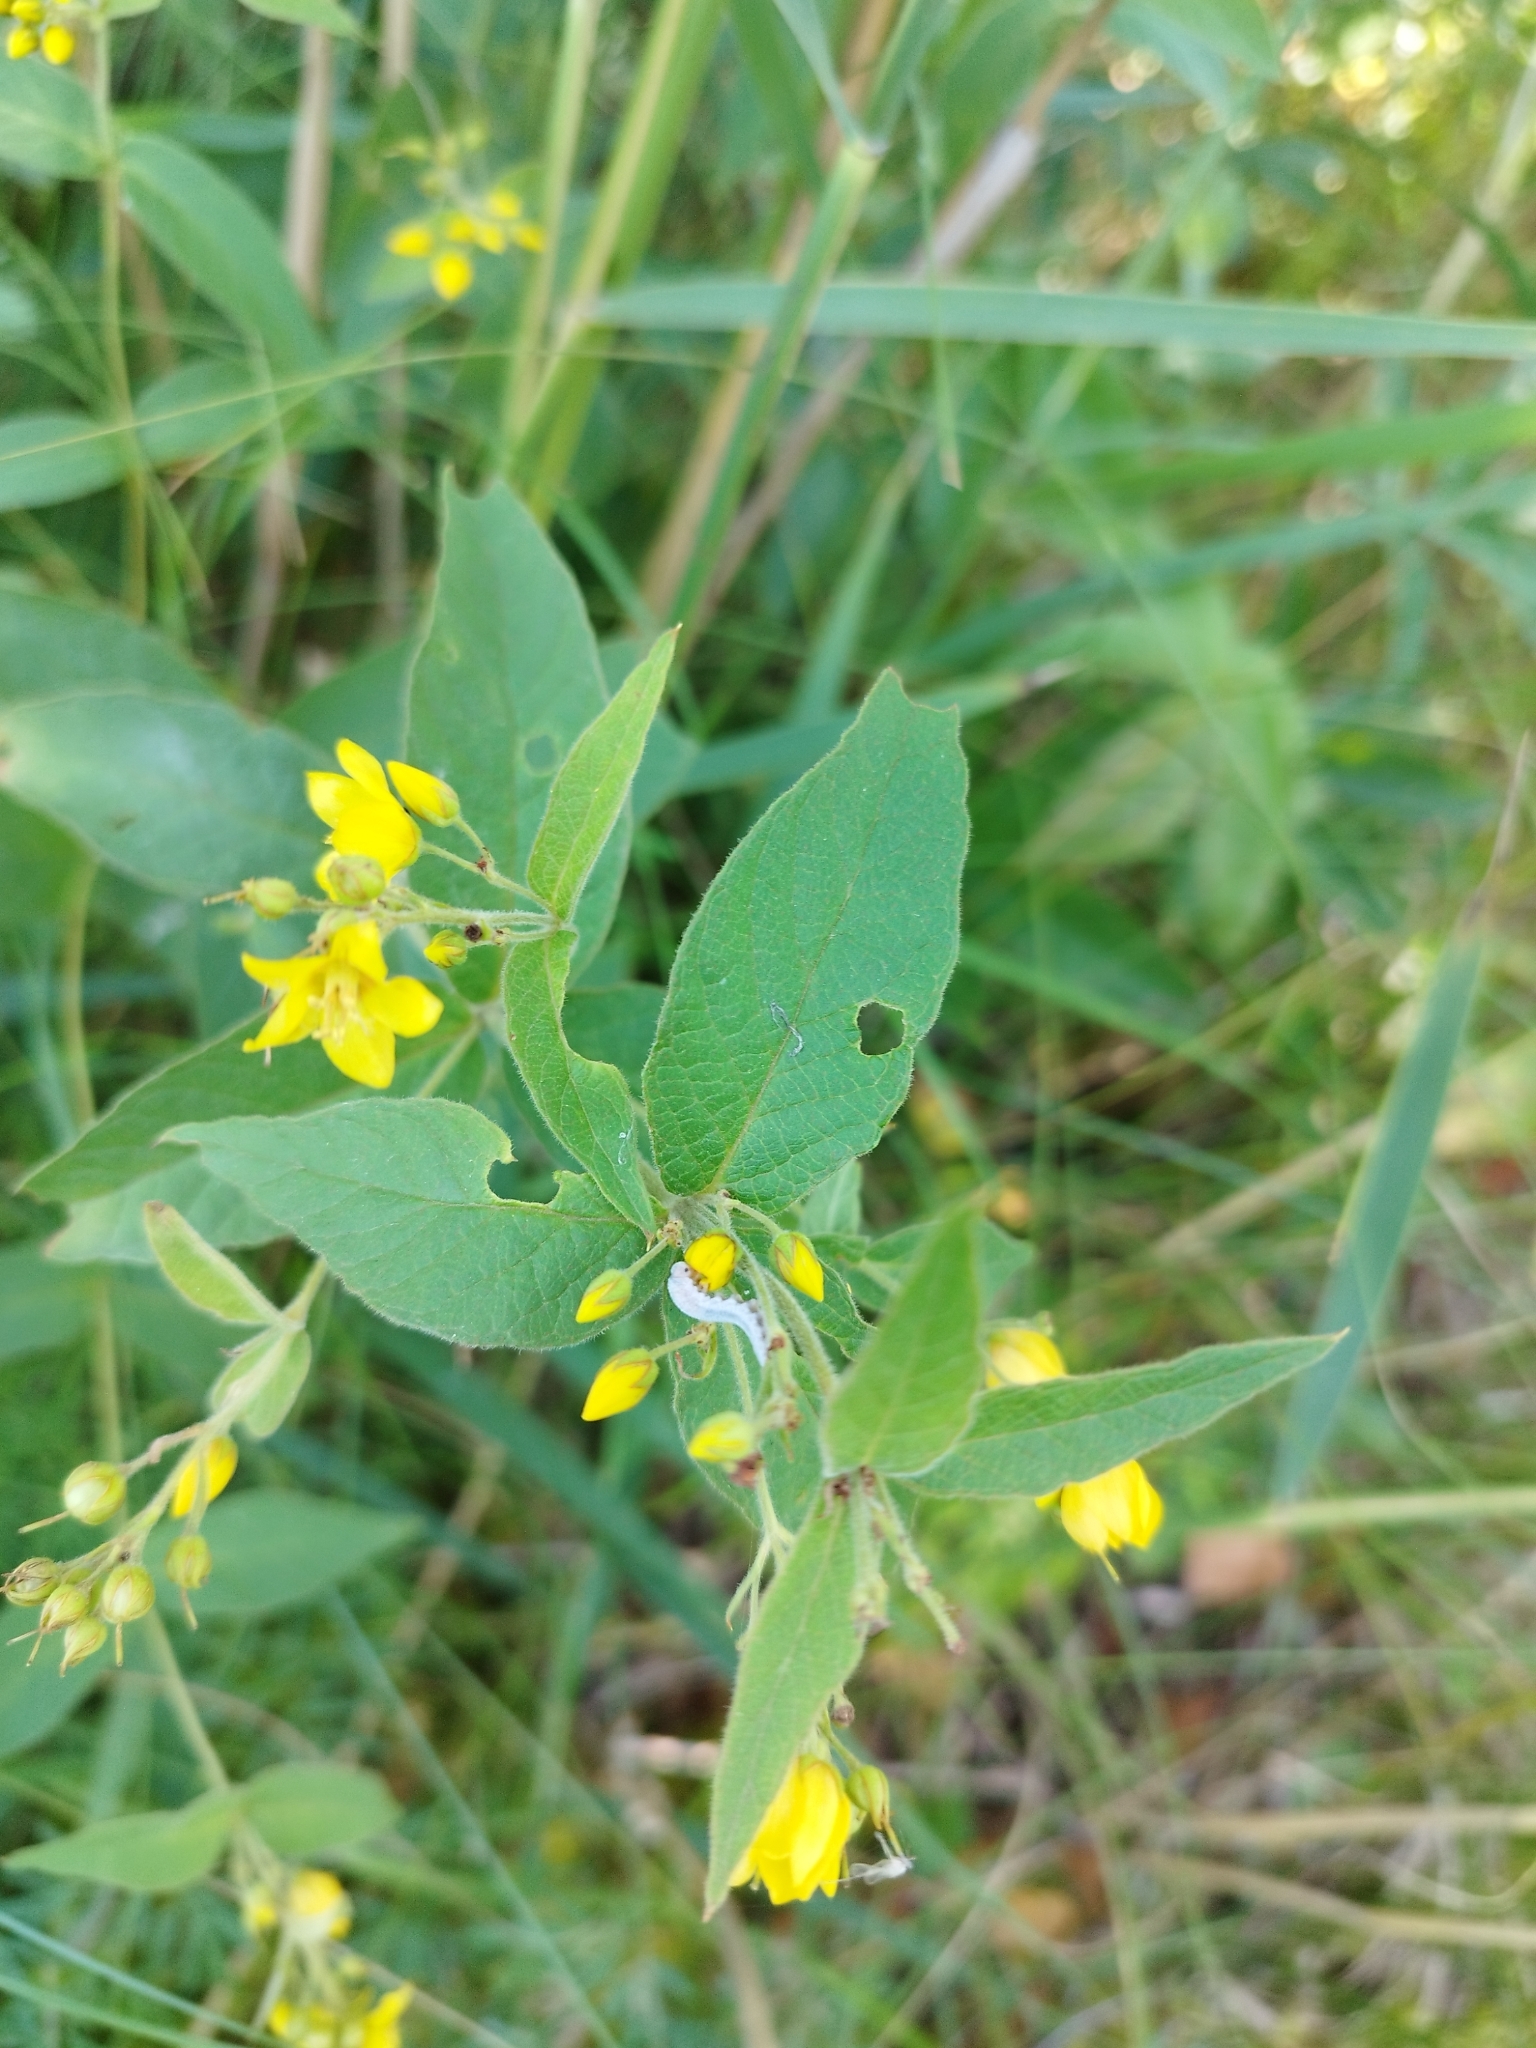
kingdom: Plantae
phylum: Tracheophyta
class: Magnoliopsida
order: Ericales
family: Primulaceae
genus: Lysimachia
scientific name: Lysimachia vulgaris
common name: Yellow loosestrife
